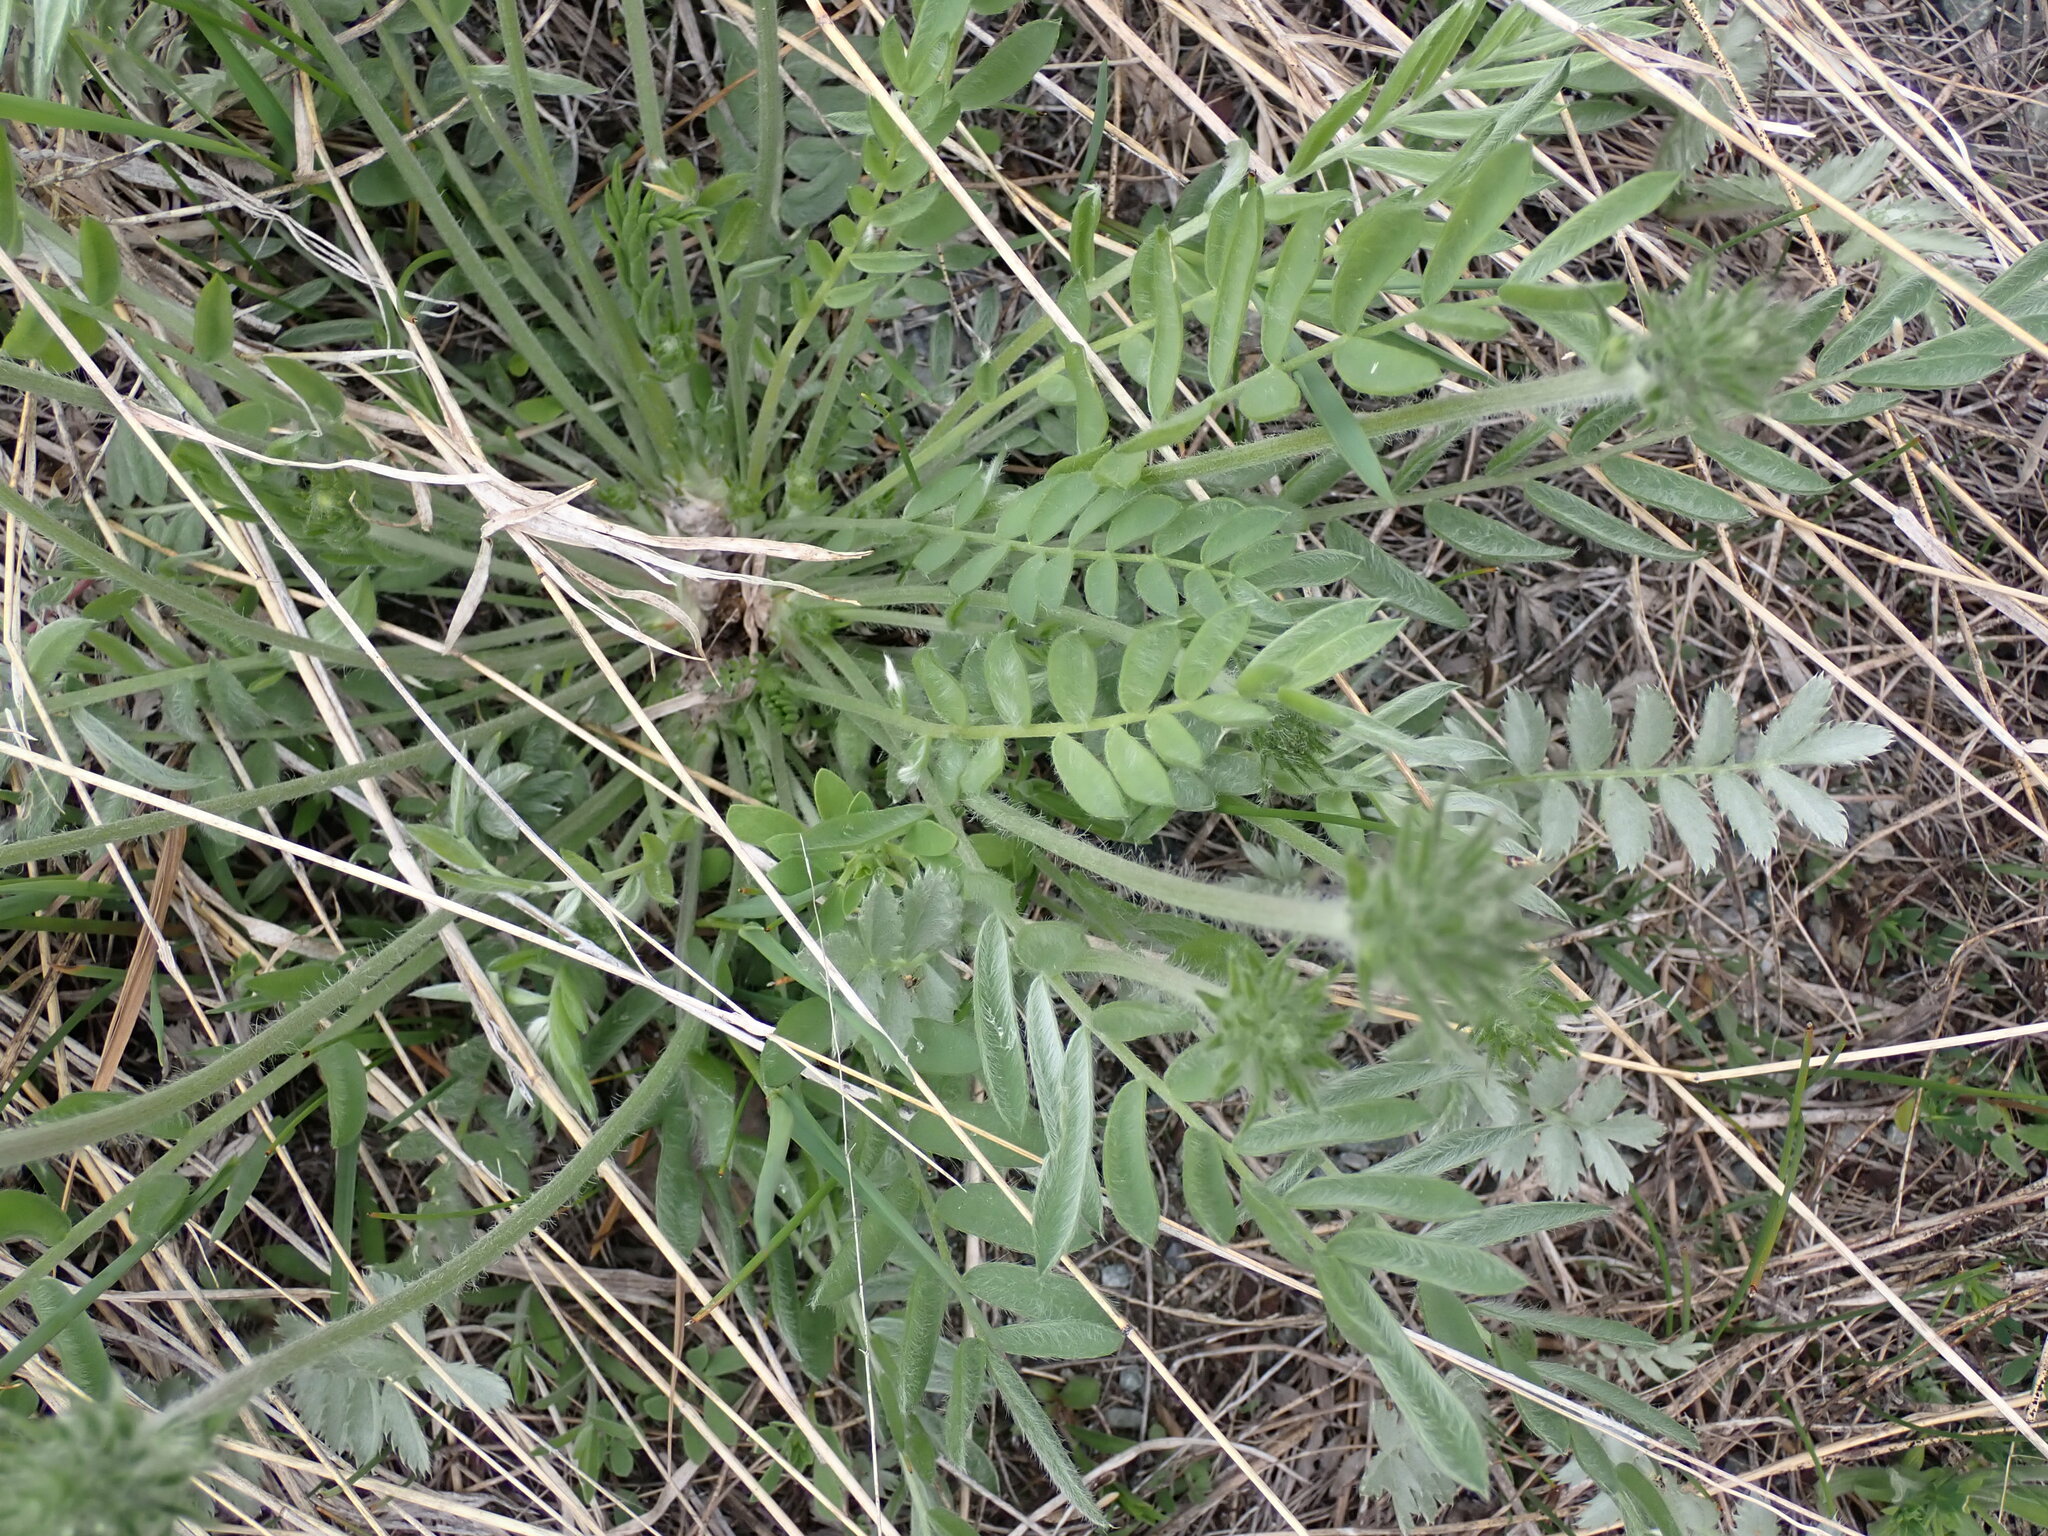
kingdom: Plantae
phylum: Tracheophyta
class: Magnoliopsida
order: Fabales
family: Fabaceae
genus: Oxytropis
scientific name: Oxytropis campestris
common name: Field locoweed
